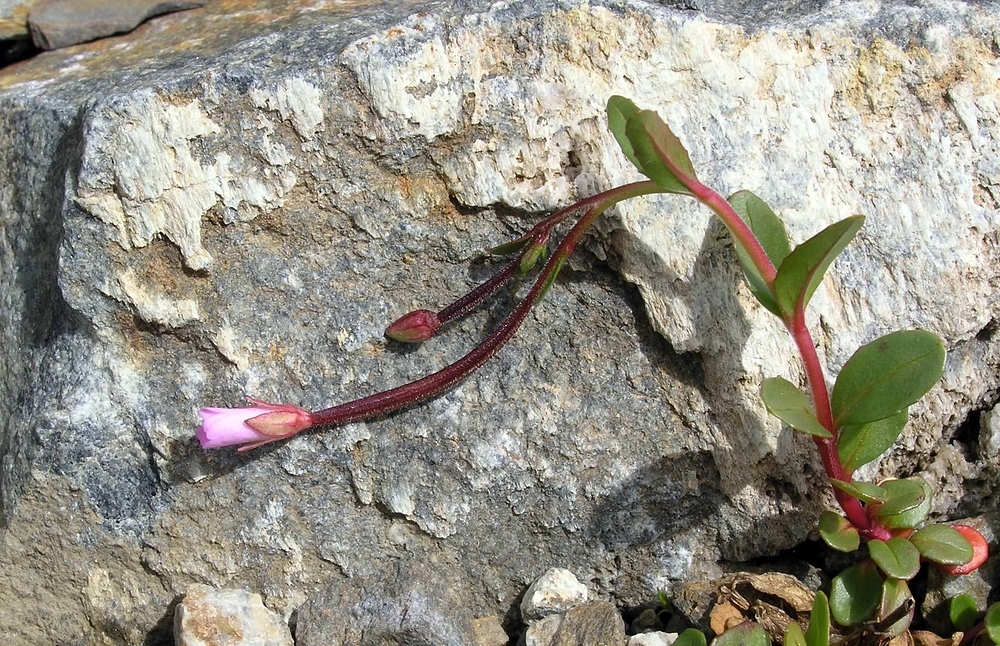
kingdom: Plantae
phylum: Tracheophyta
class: Magnoliopsida
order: Myrtales
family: Onagraceae
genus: Epilobium
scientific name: Epilobium anagallidifolium
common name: Alpine willowherb
